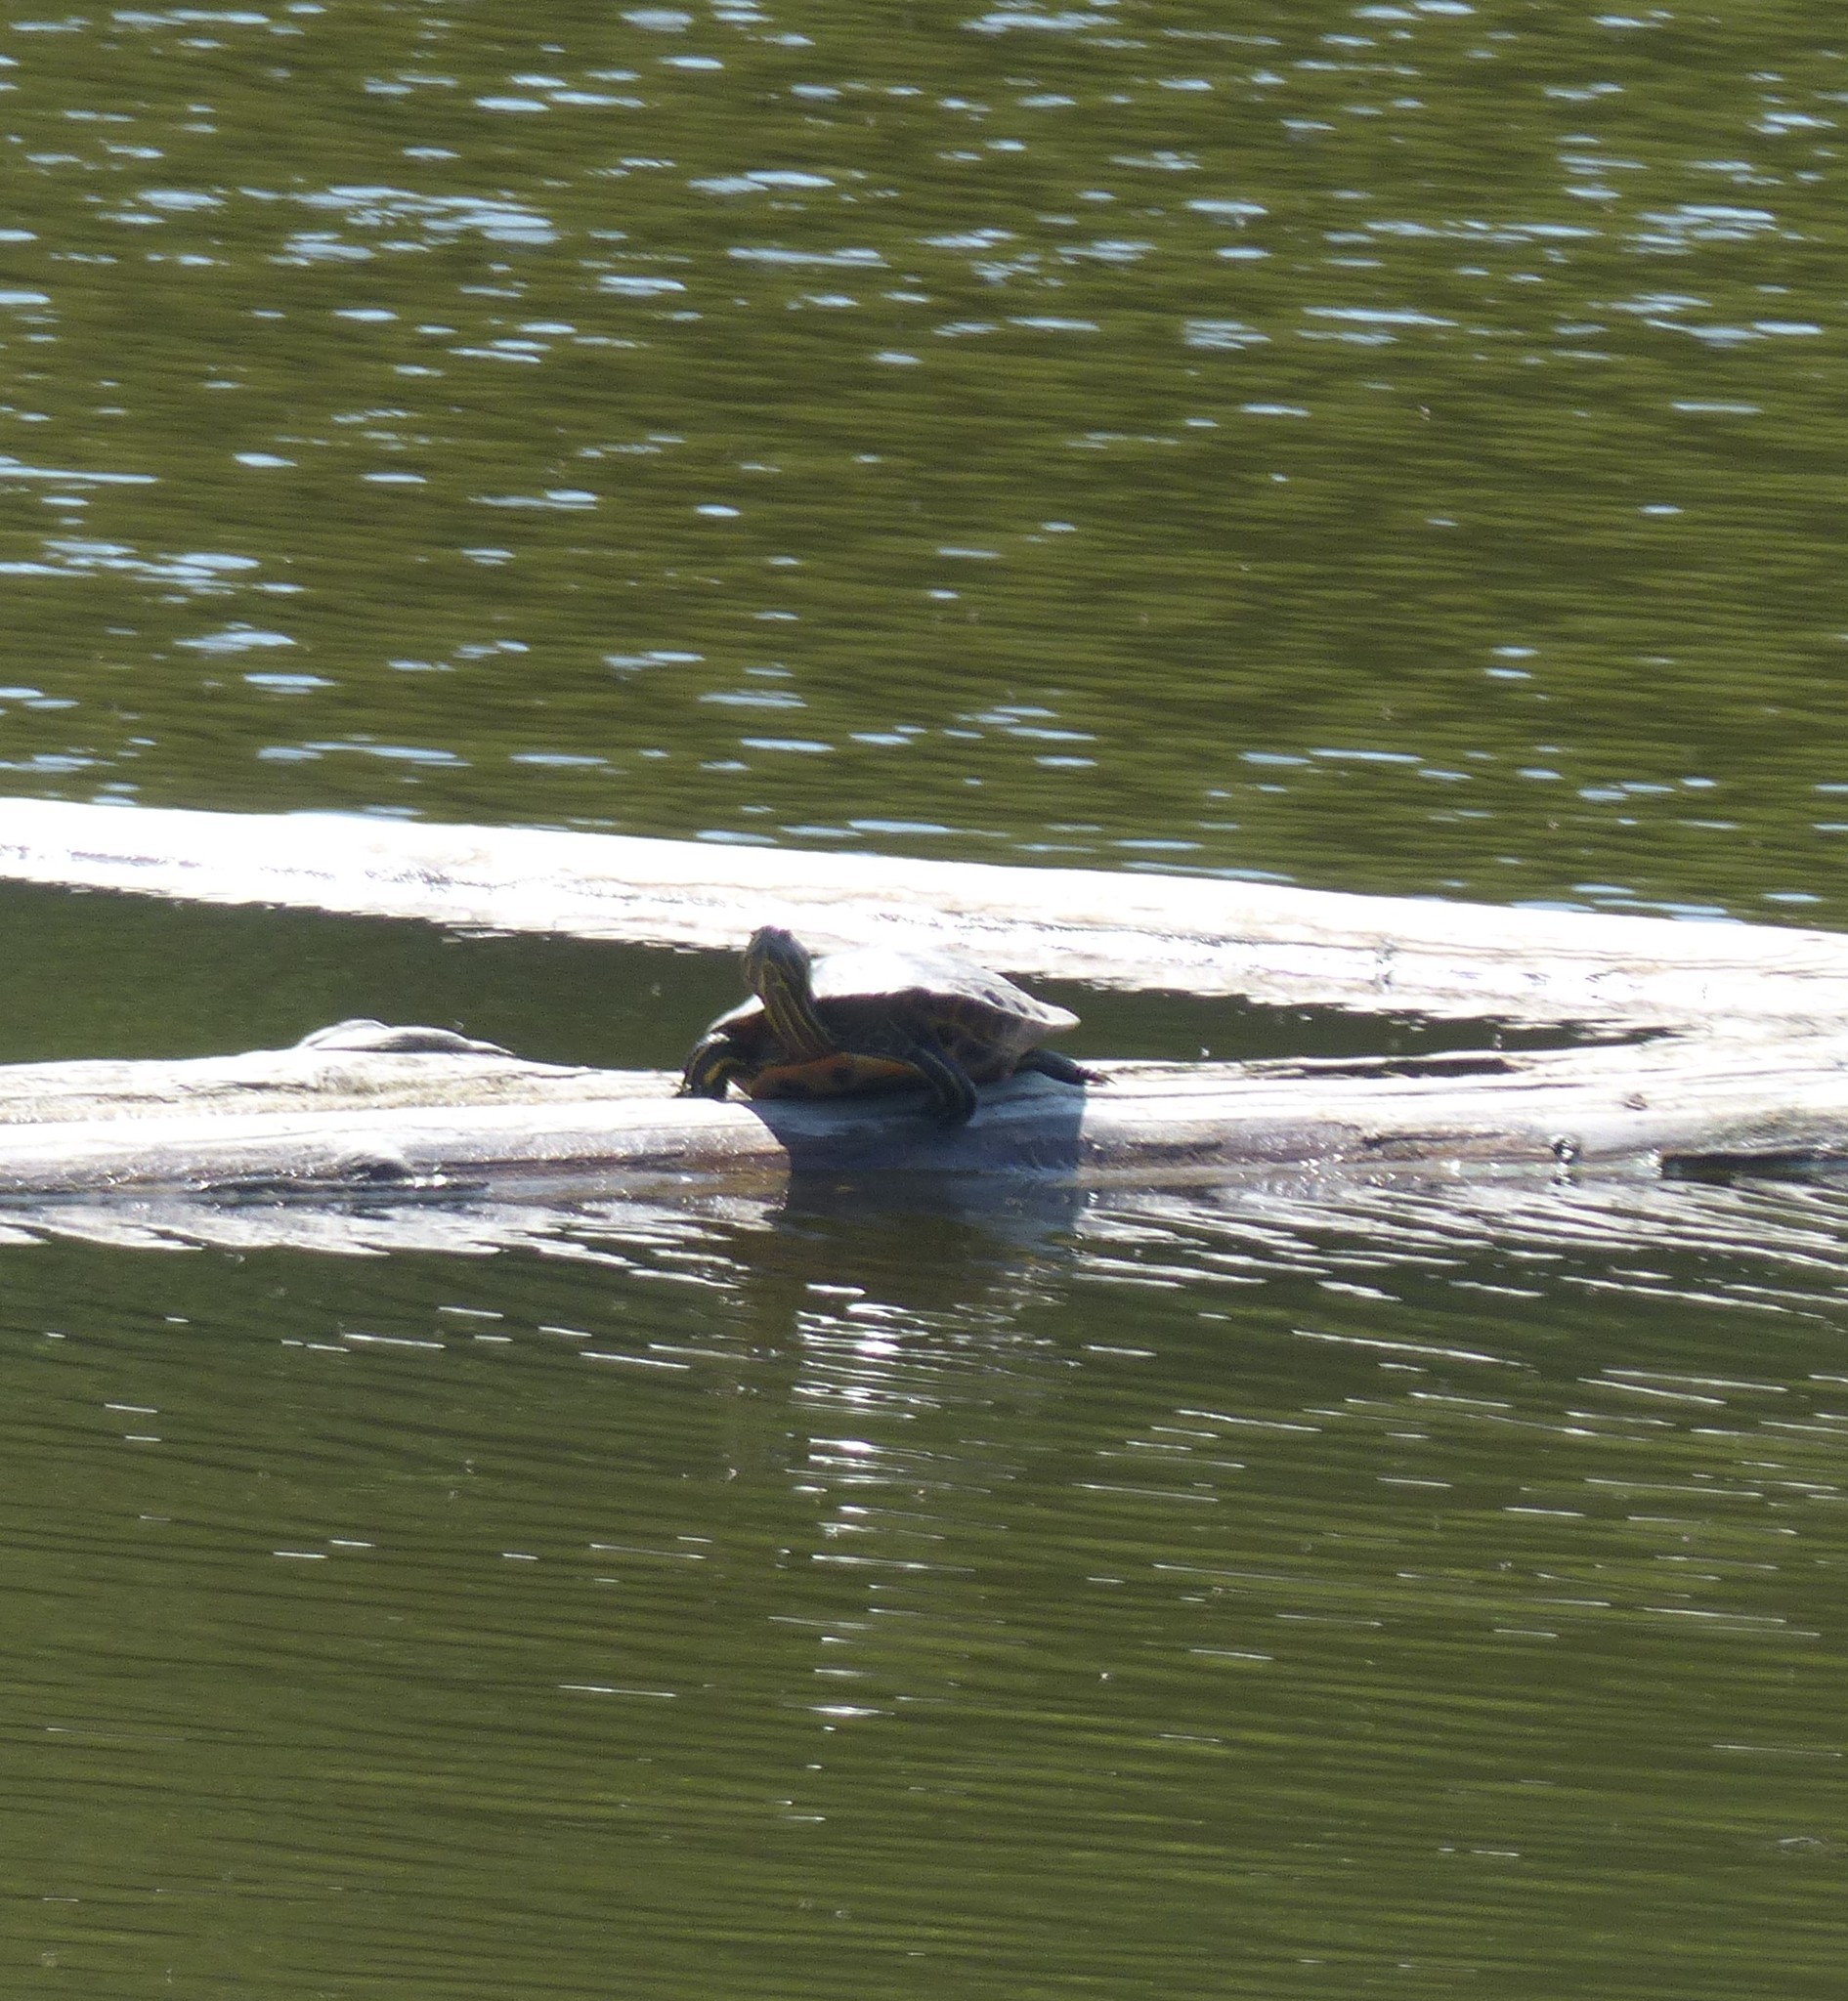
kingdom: Animalia
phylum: Chordata
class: Testudines
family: Emydidae
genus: Trachemys
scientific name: Trachemys scripta
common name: Slider
